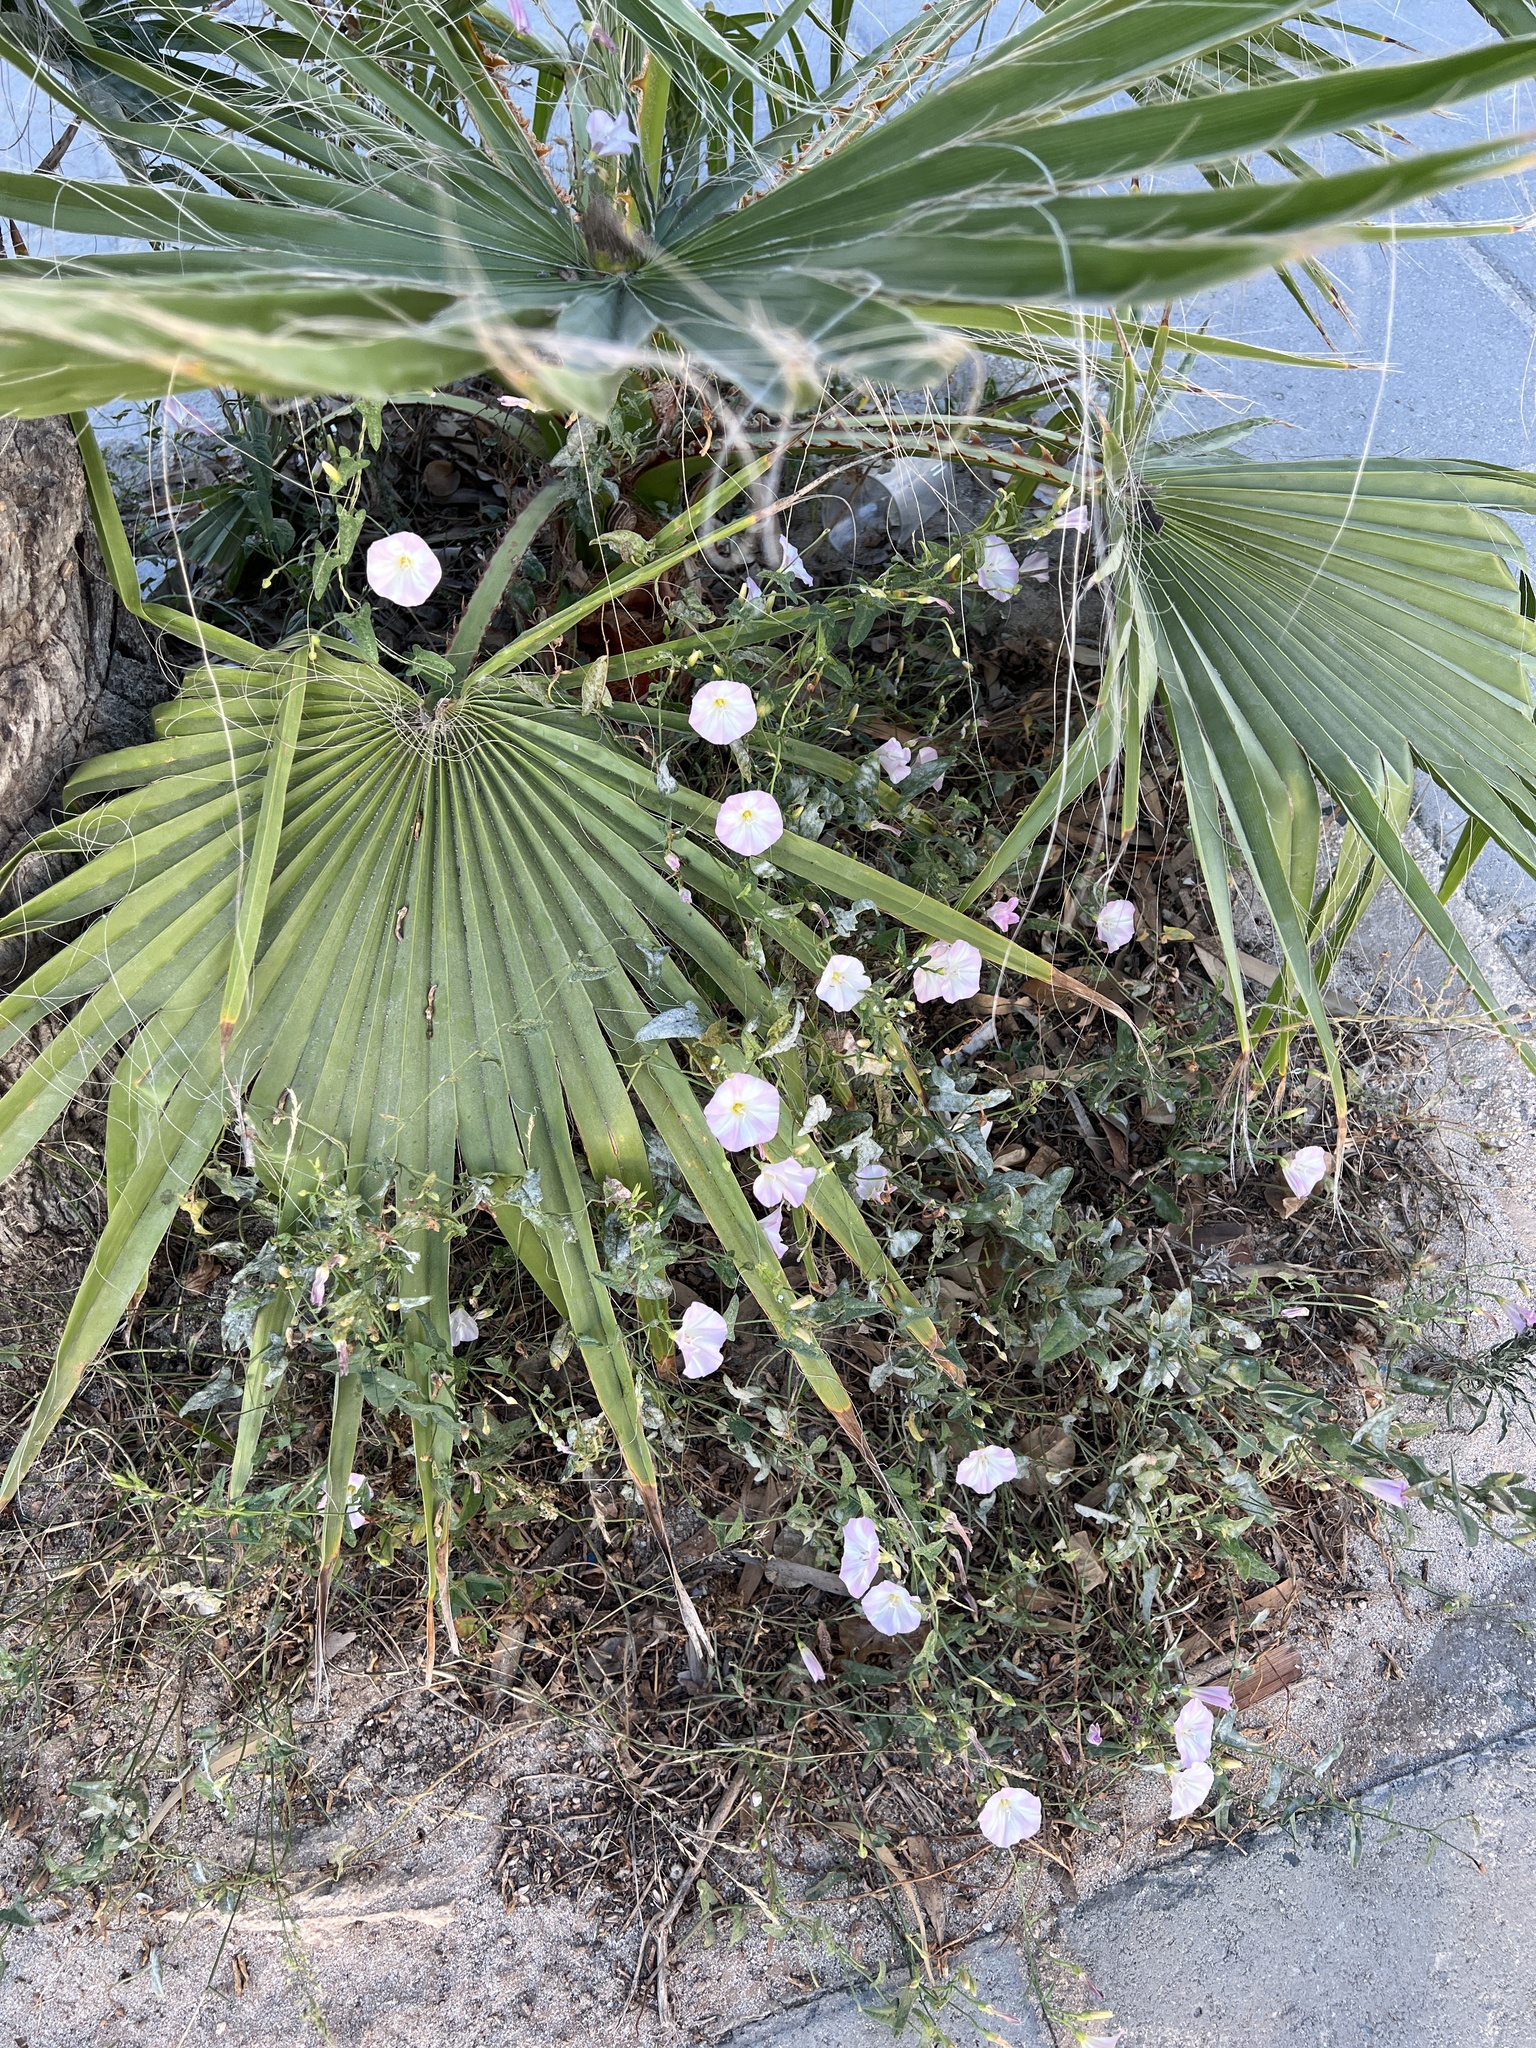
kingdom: Plantae
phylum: Tracheophyta
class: Magnoliopsida
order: Solanales
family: Convolvulaceae
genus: Convolvulus
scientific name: Convolvulus arvensis
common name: Field bindweed
